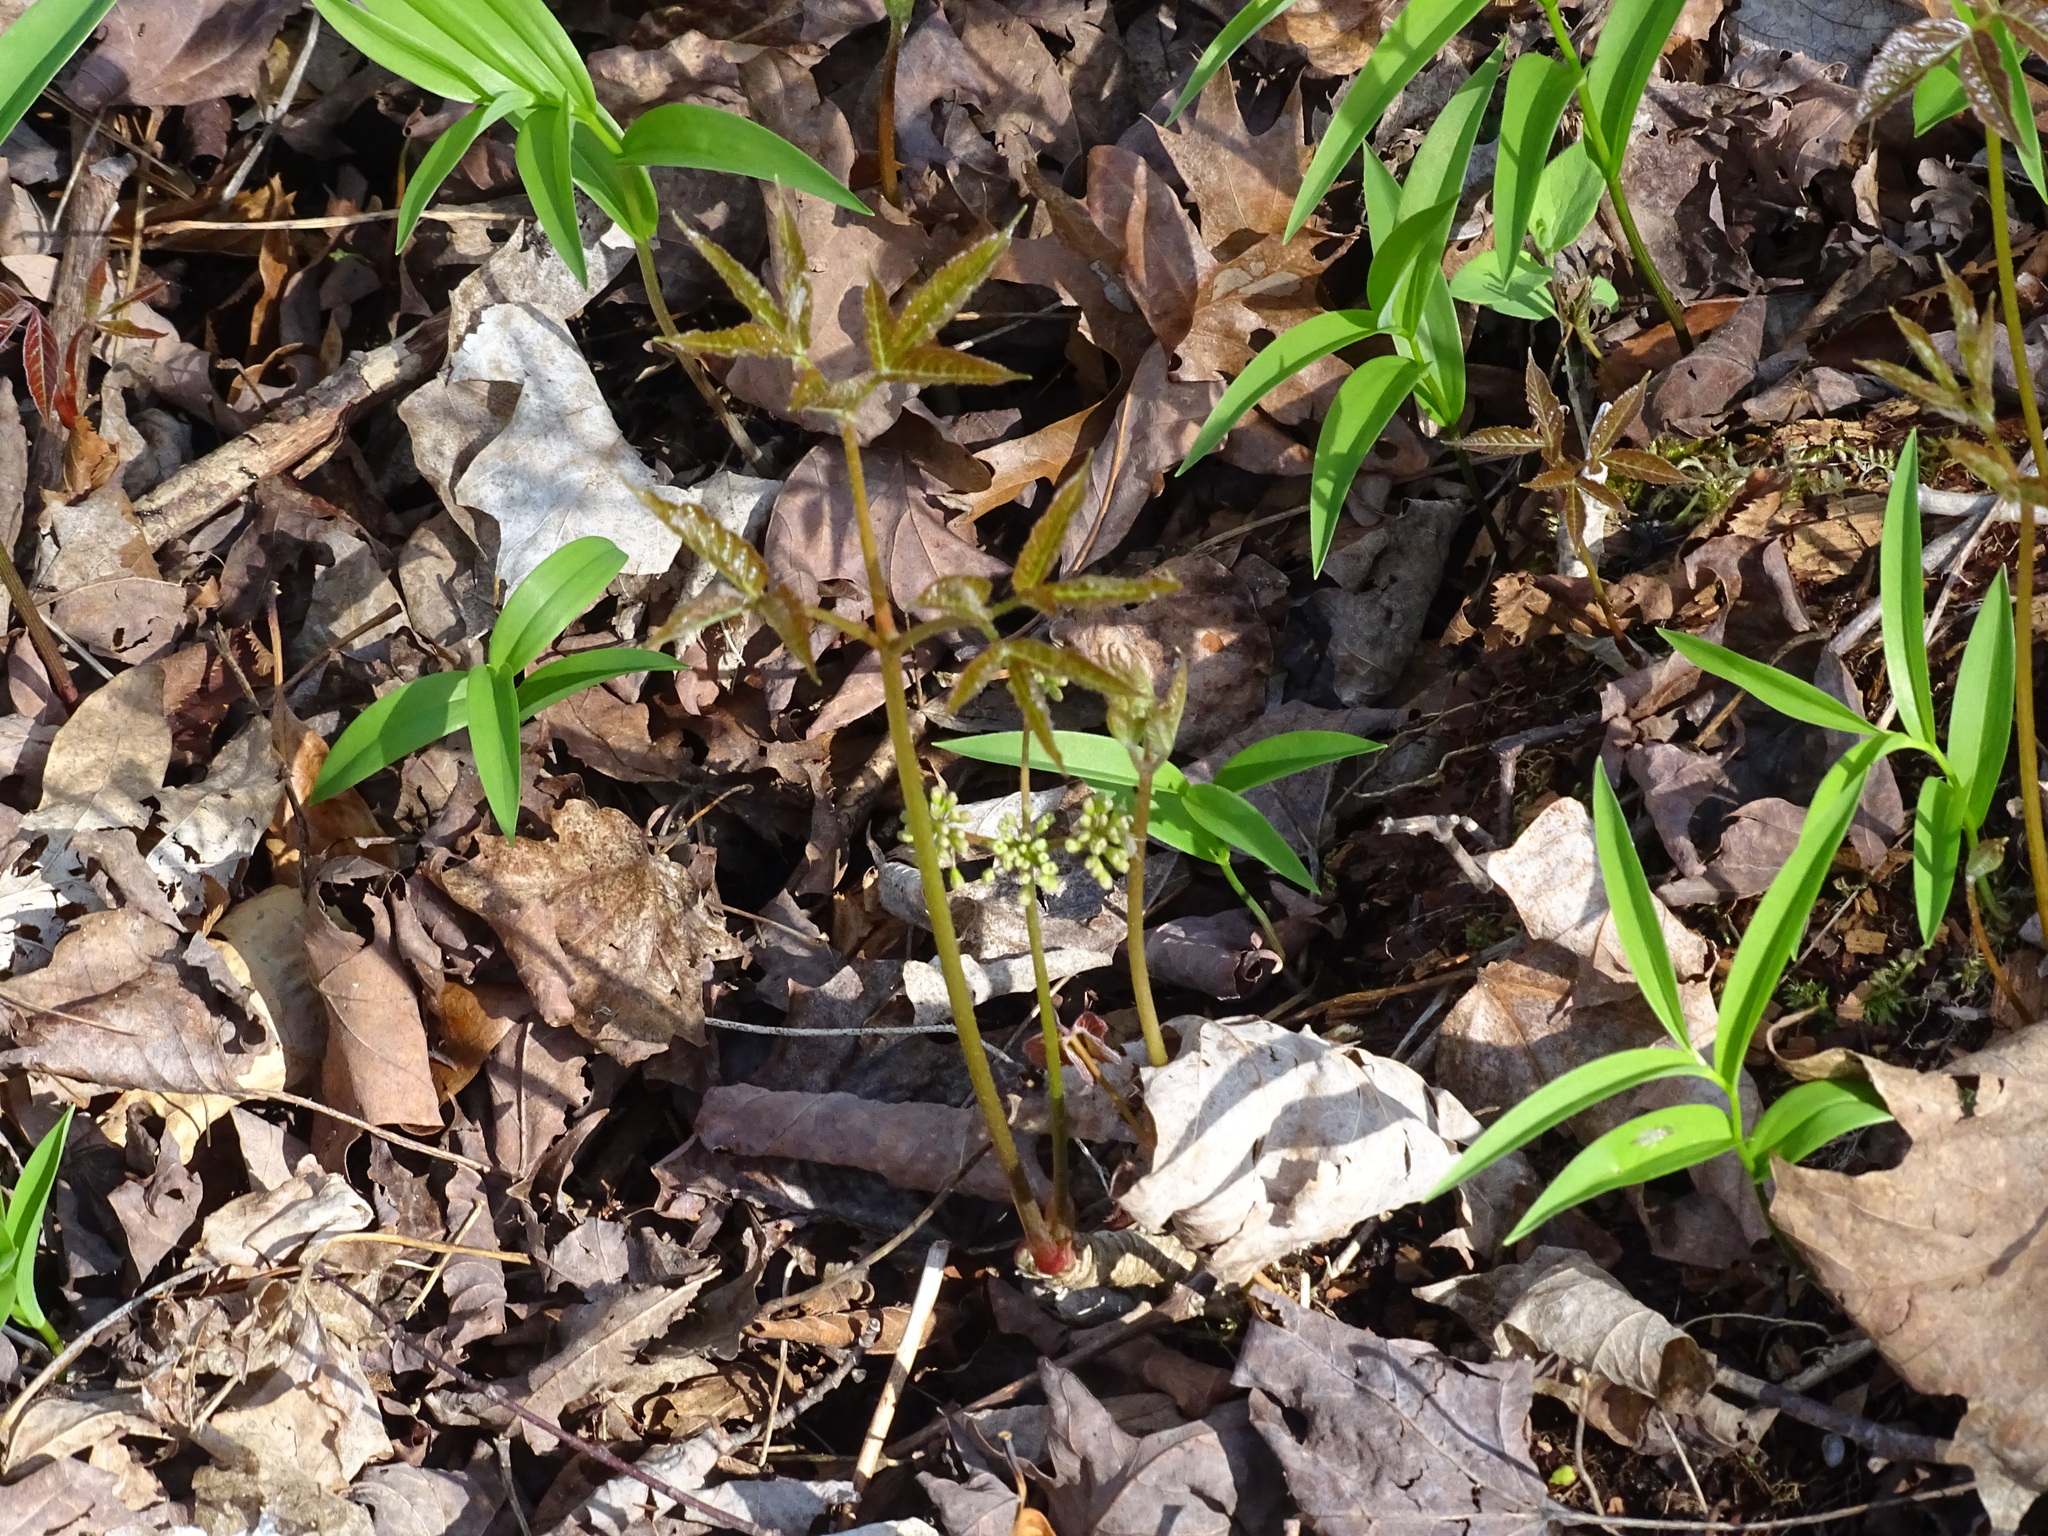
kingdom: Plantae
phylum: Tracheophyta
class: Magnoliopsida
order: Apiales
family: Araliaceae
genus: Aralia
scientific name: Aralia nudicaulis
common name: Wild sarsaparilla
